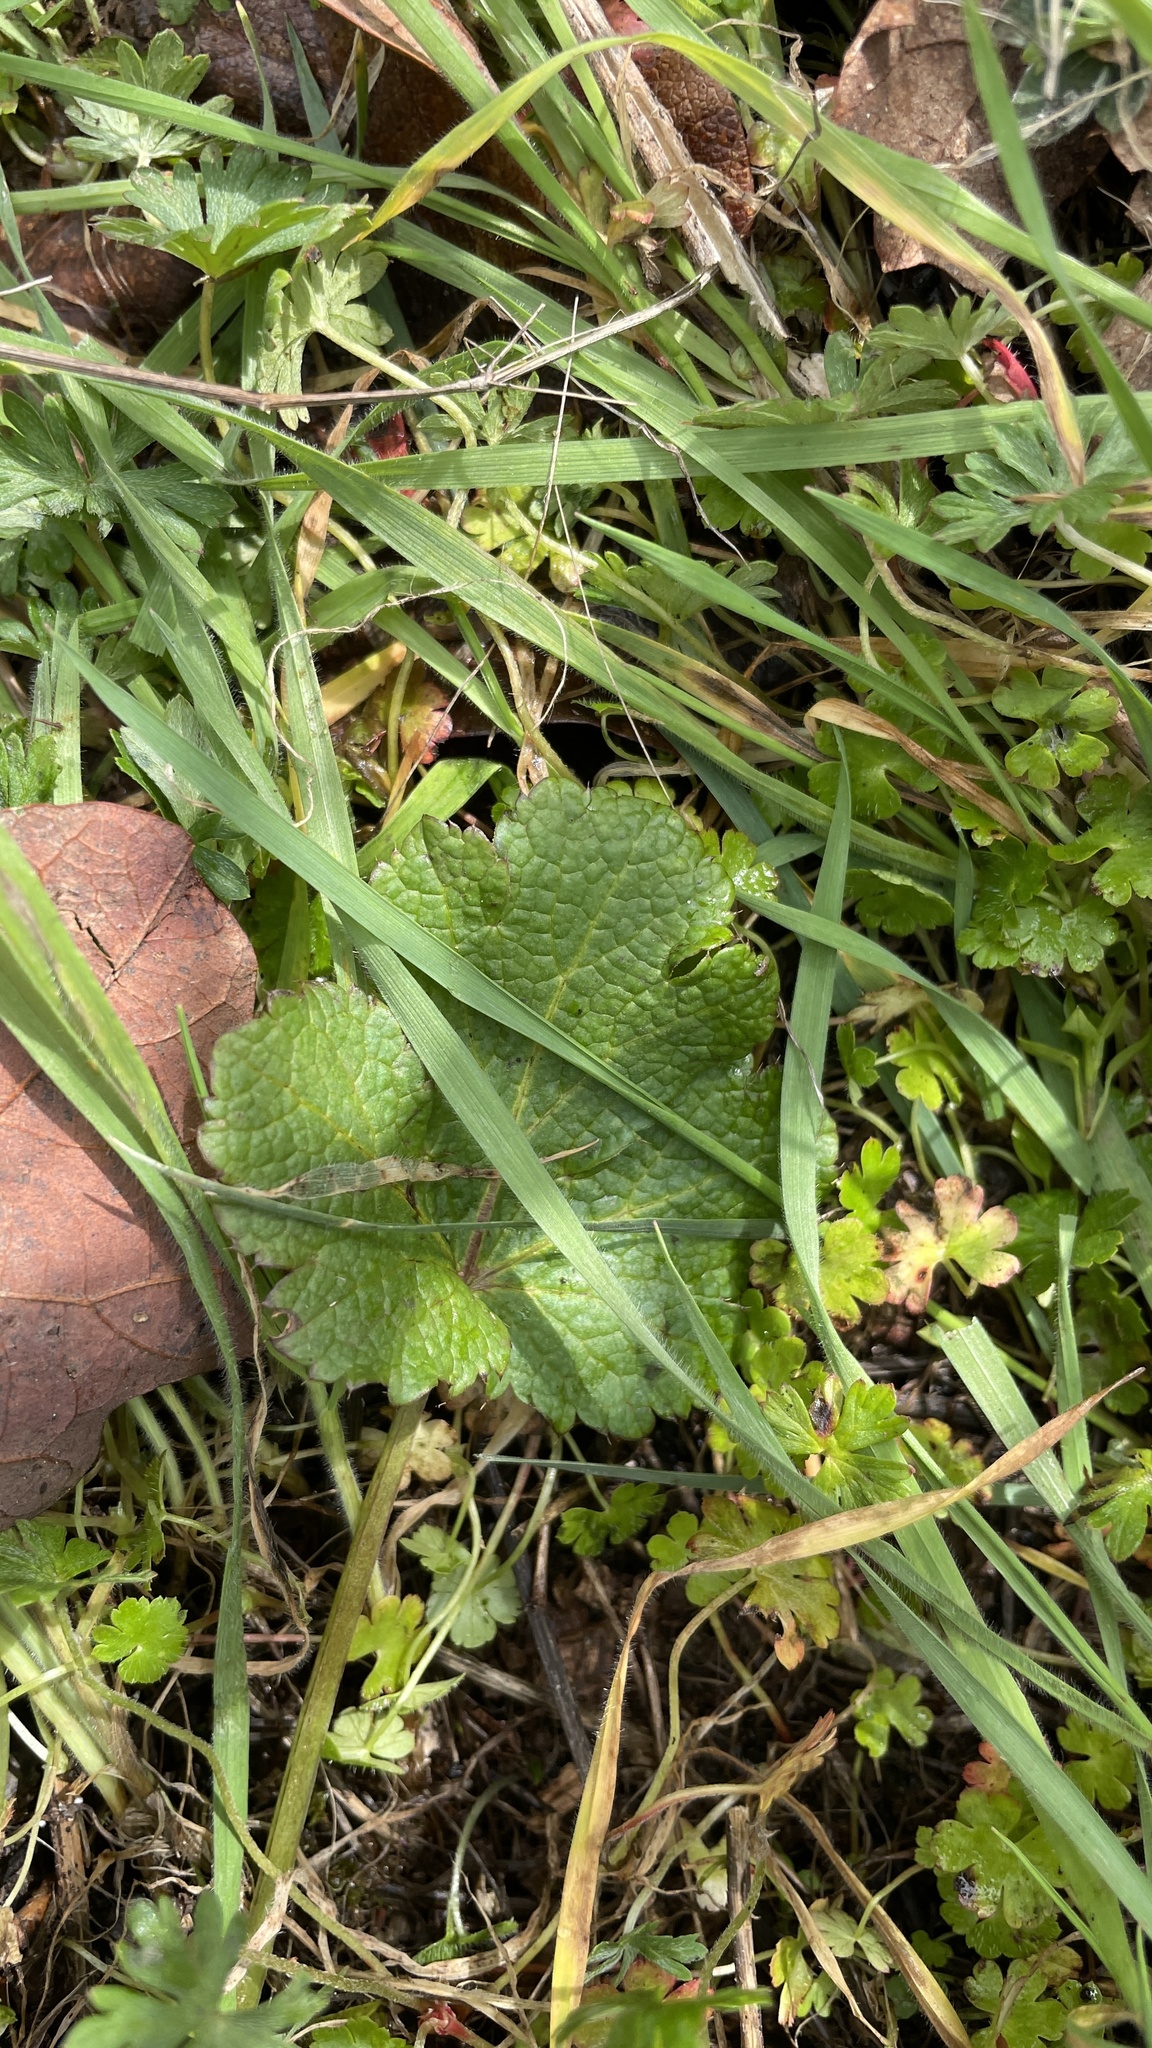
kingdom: Plantae
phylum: Tracheophyta
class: Magnoliopsida
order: Apiales
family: Apiaceae
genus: Sanicula
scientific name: Sanicula crassicaulis
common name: Western snakeroot
